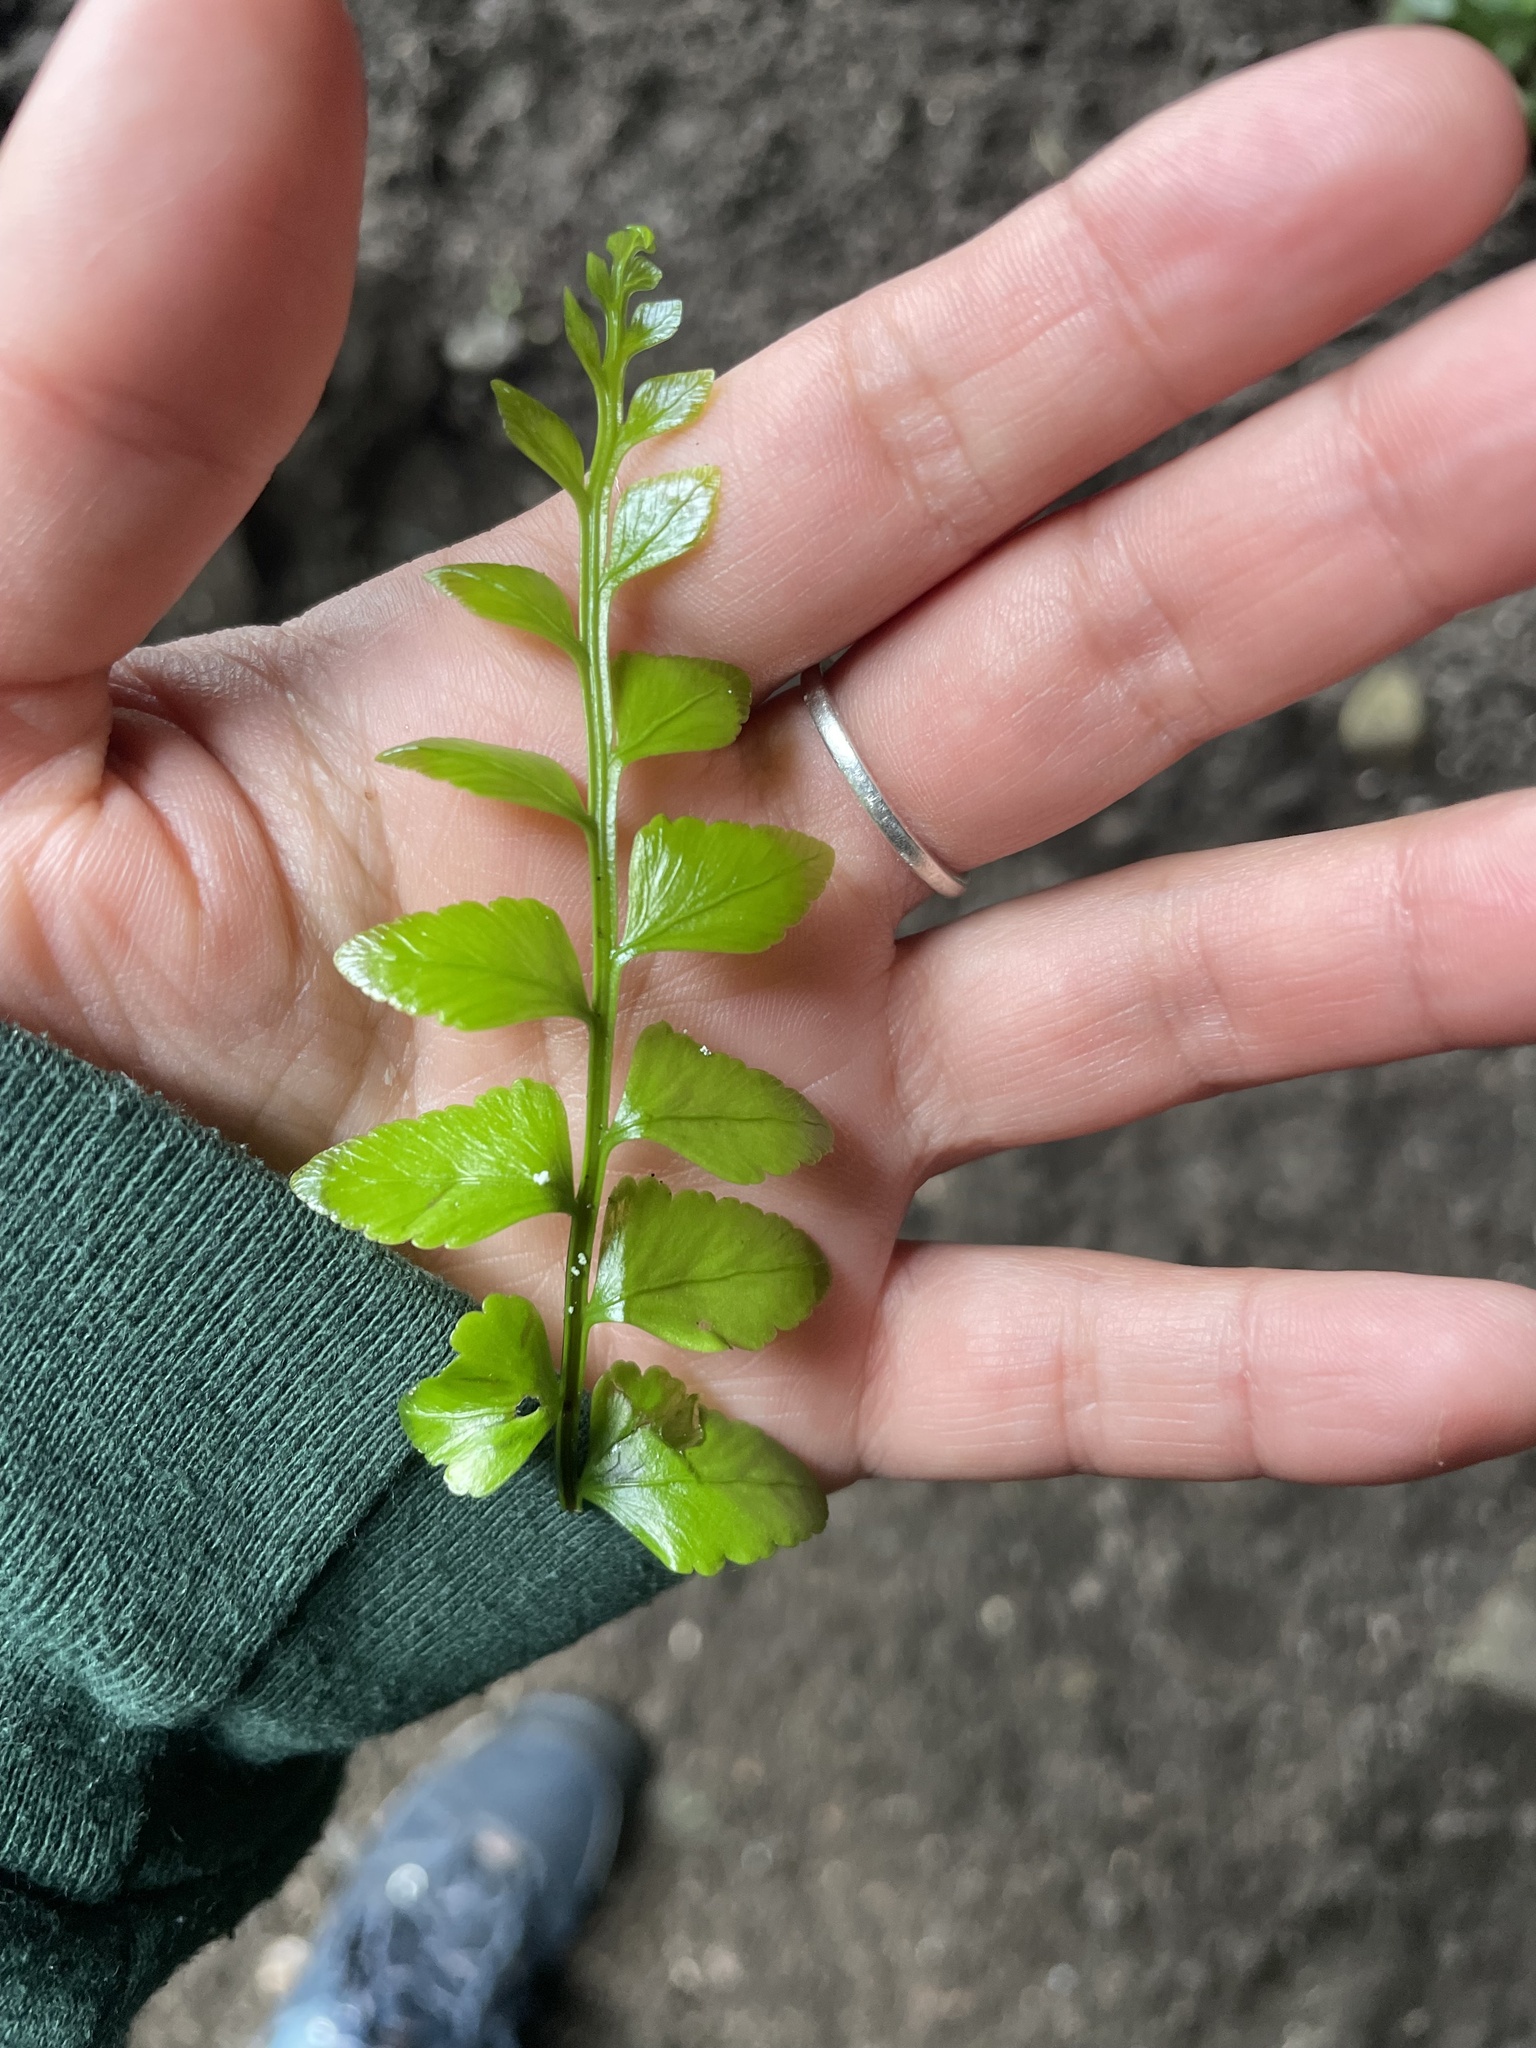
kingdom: Plantae
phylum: Tracheophyta
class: Polypodiopsida
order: Polypodiales
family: Aspleniaceae
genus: Asplenium
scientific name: Asplenium marinum
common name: Sea spleenwort
